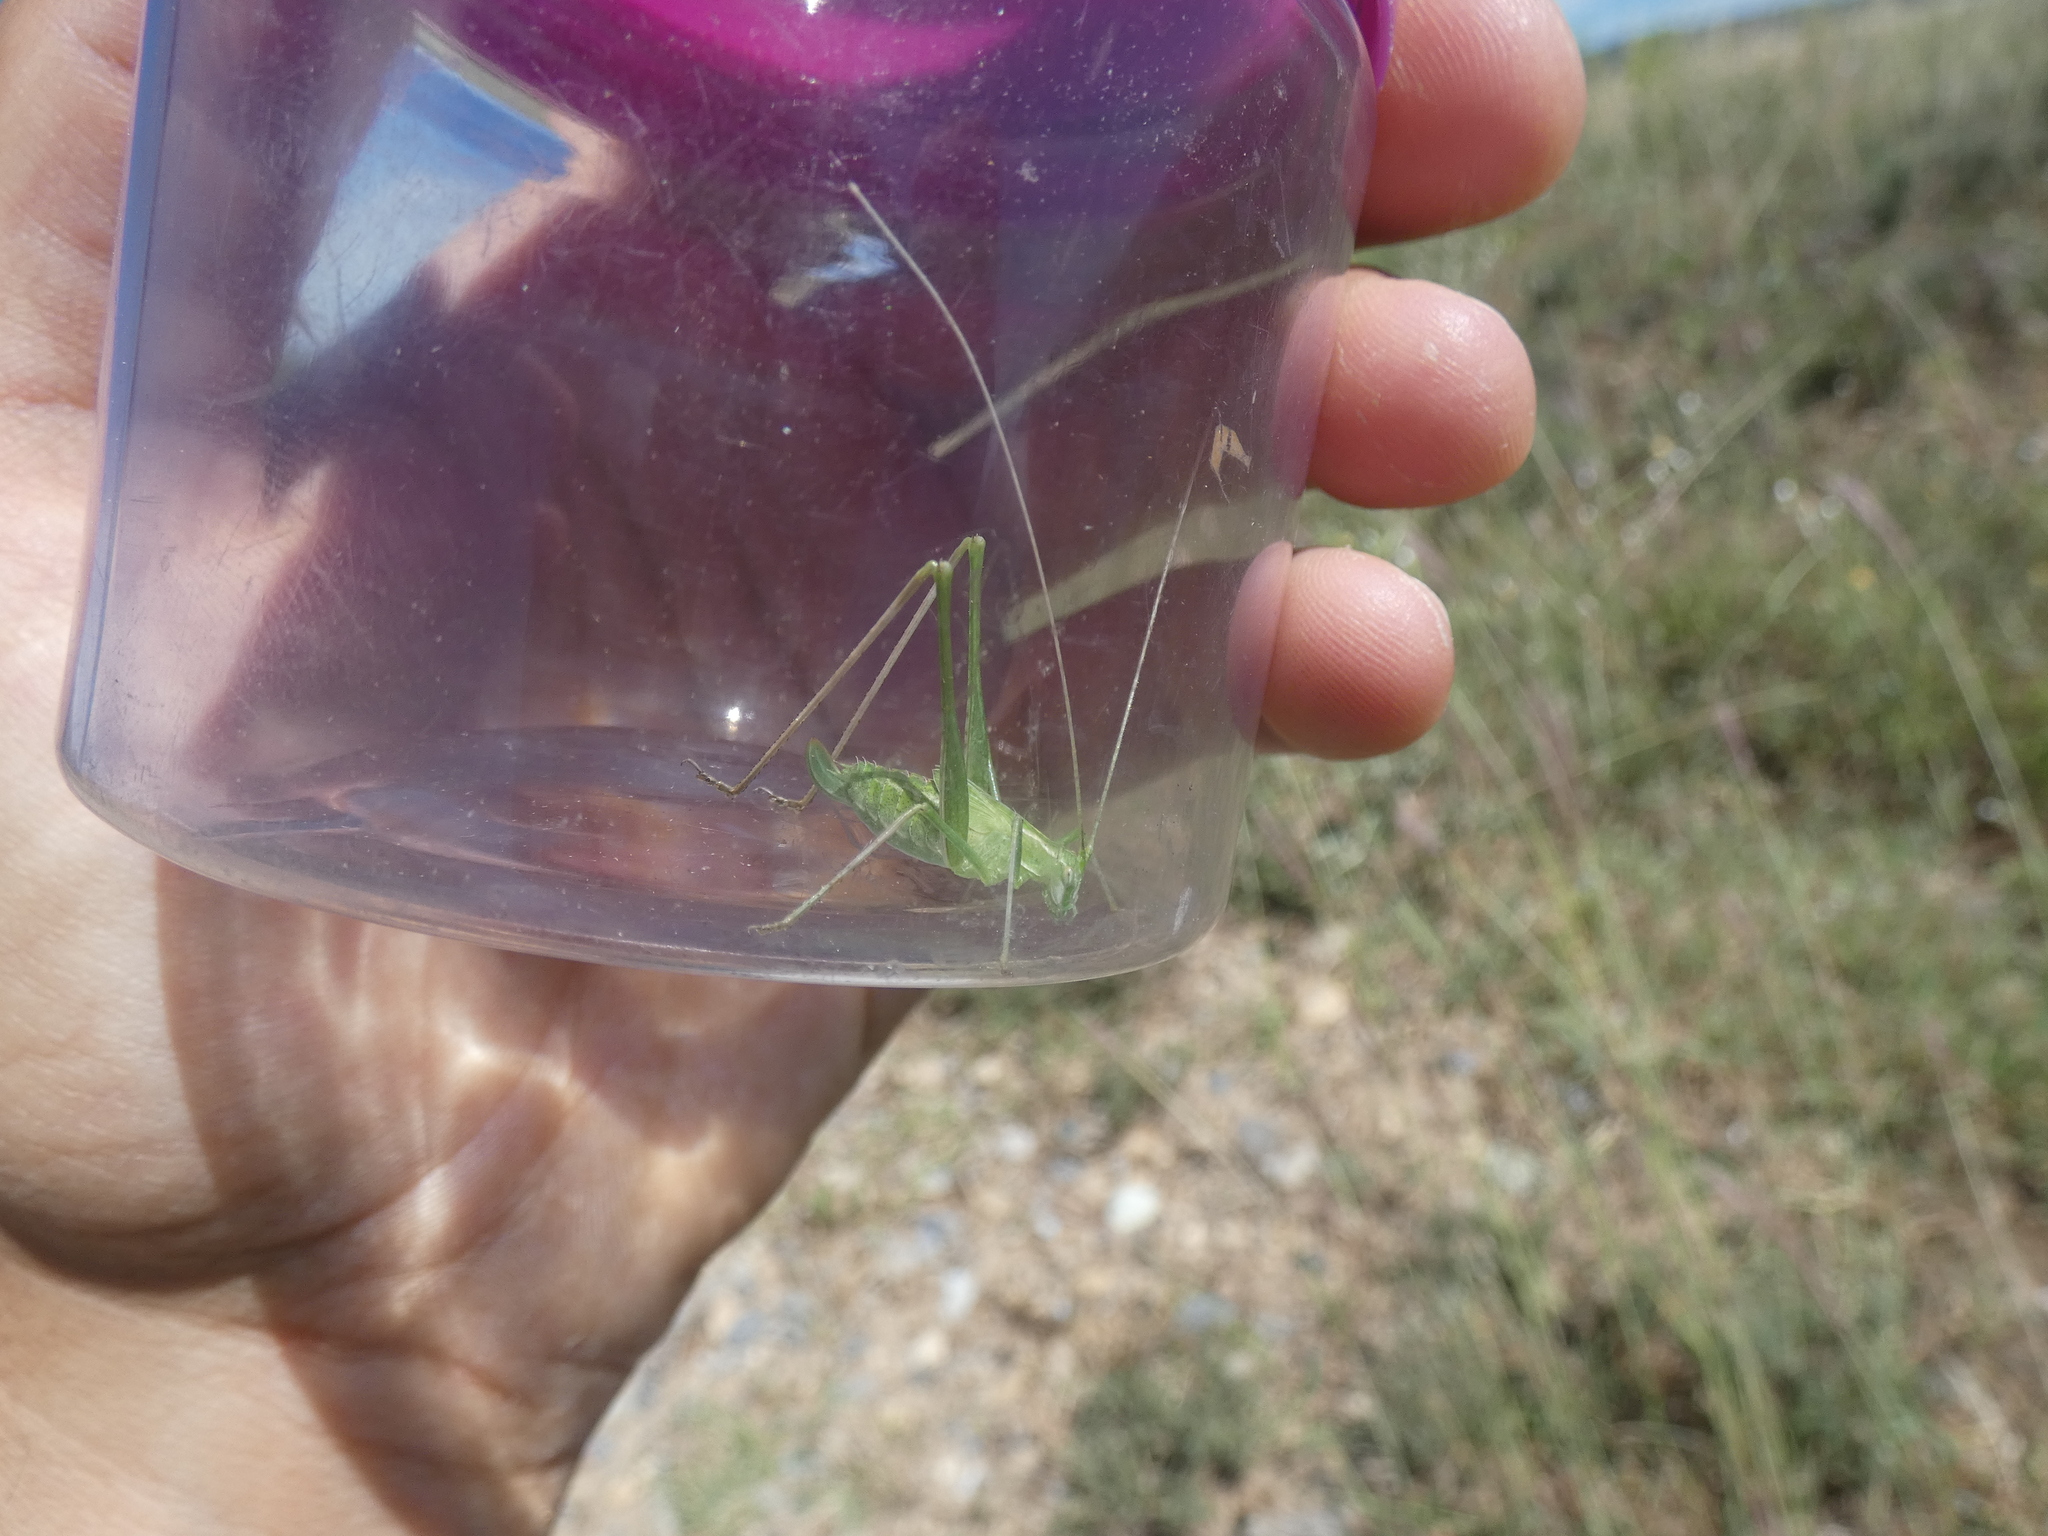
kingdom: Animalia
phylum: Arthropoda
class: Insecta
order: Orthoptera
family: Tettigoniidae
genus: Tylopsis
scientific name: Tylopsis lilifolia
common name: Lily bush-cricket
